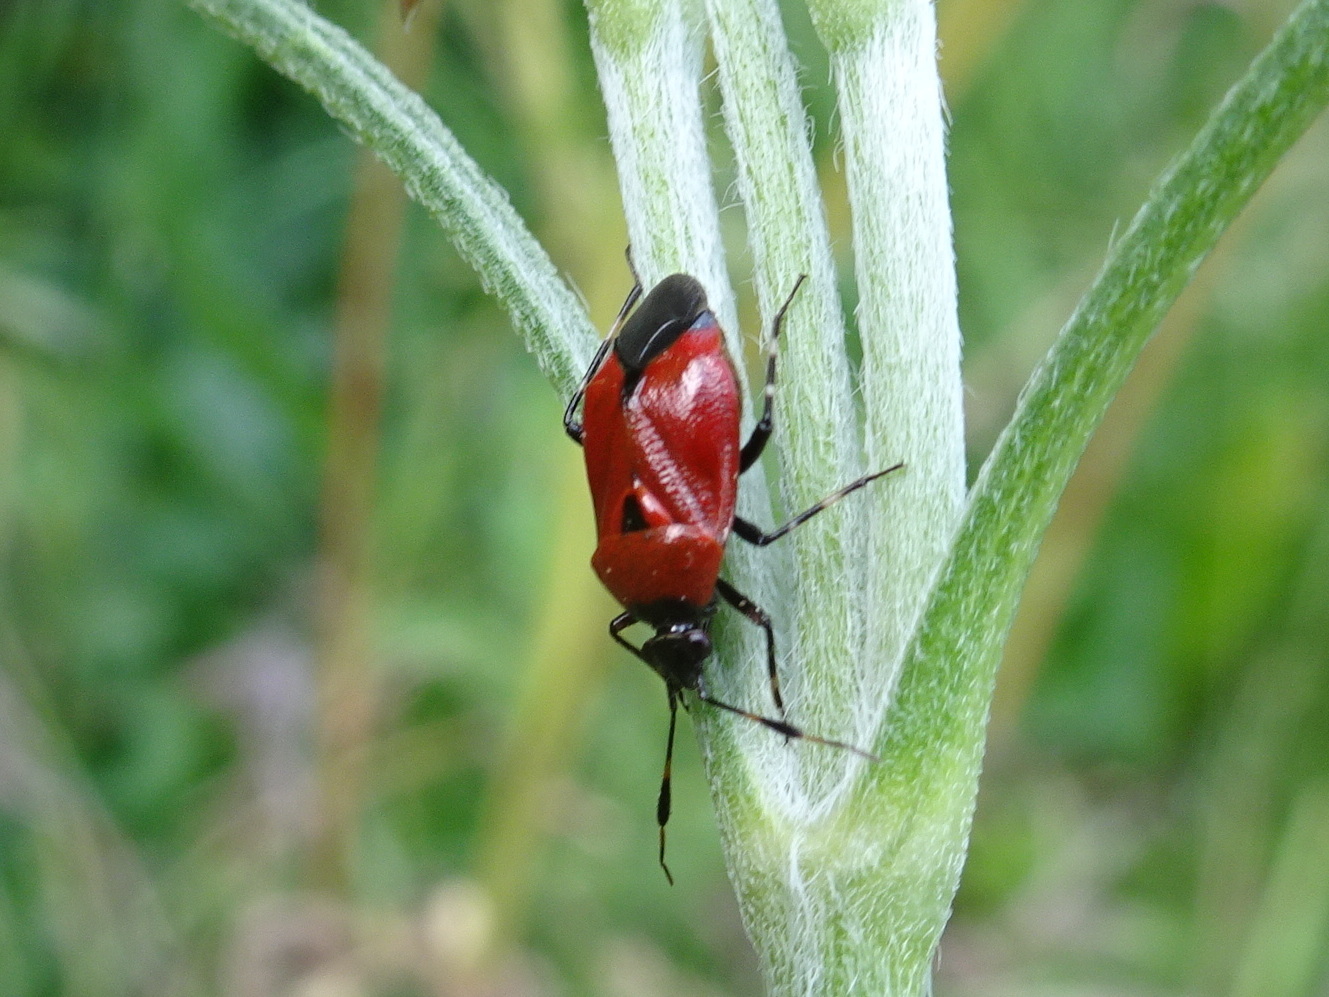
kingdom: Animalia
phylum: Arthropoda
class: Insecta
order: Hemiptera
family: Miridae
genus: Deraeocoris
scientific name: Deraeocoris punctum
